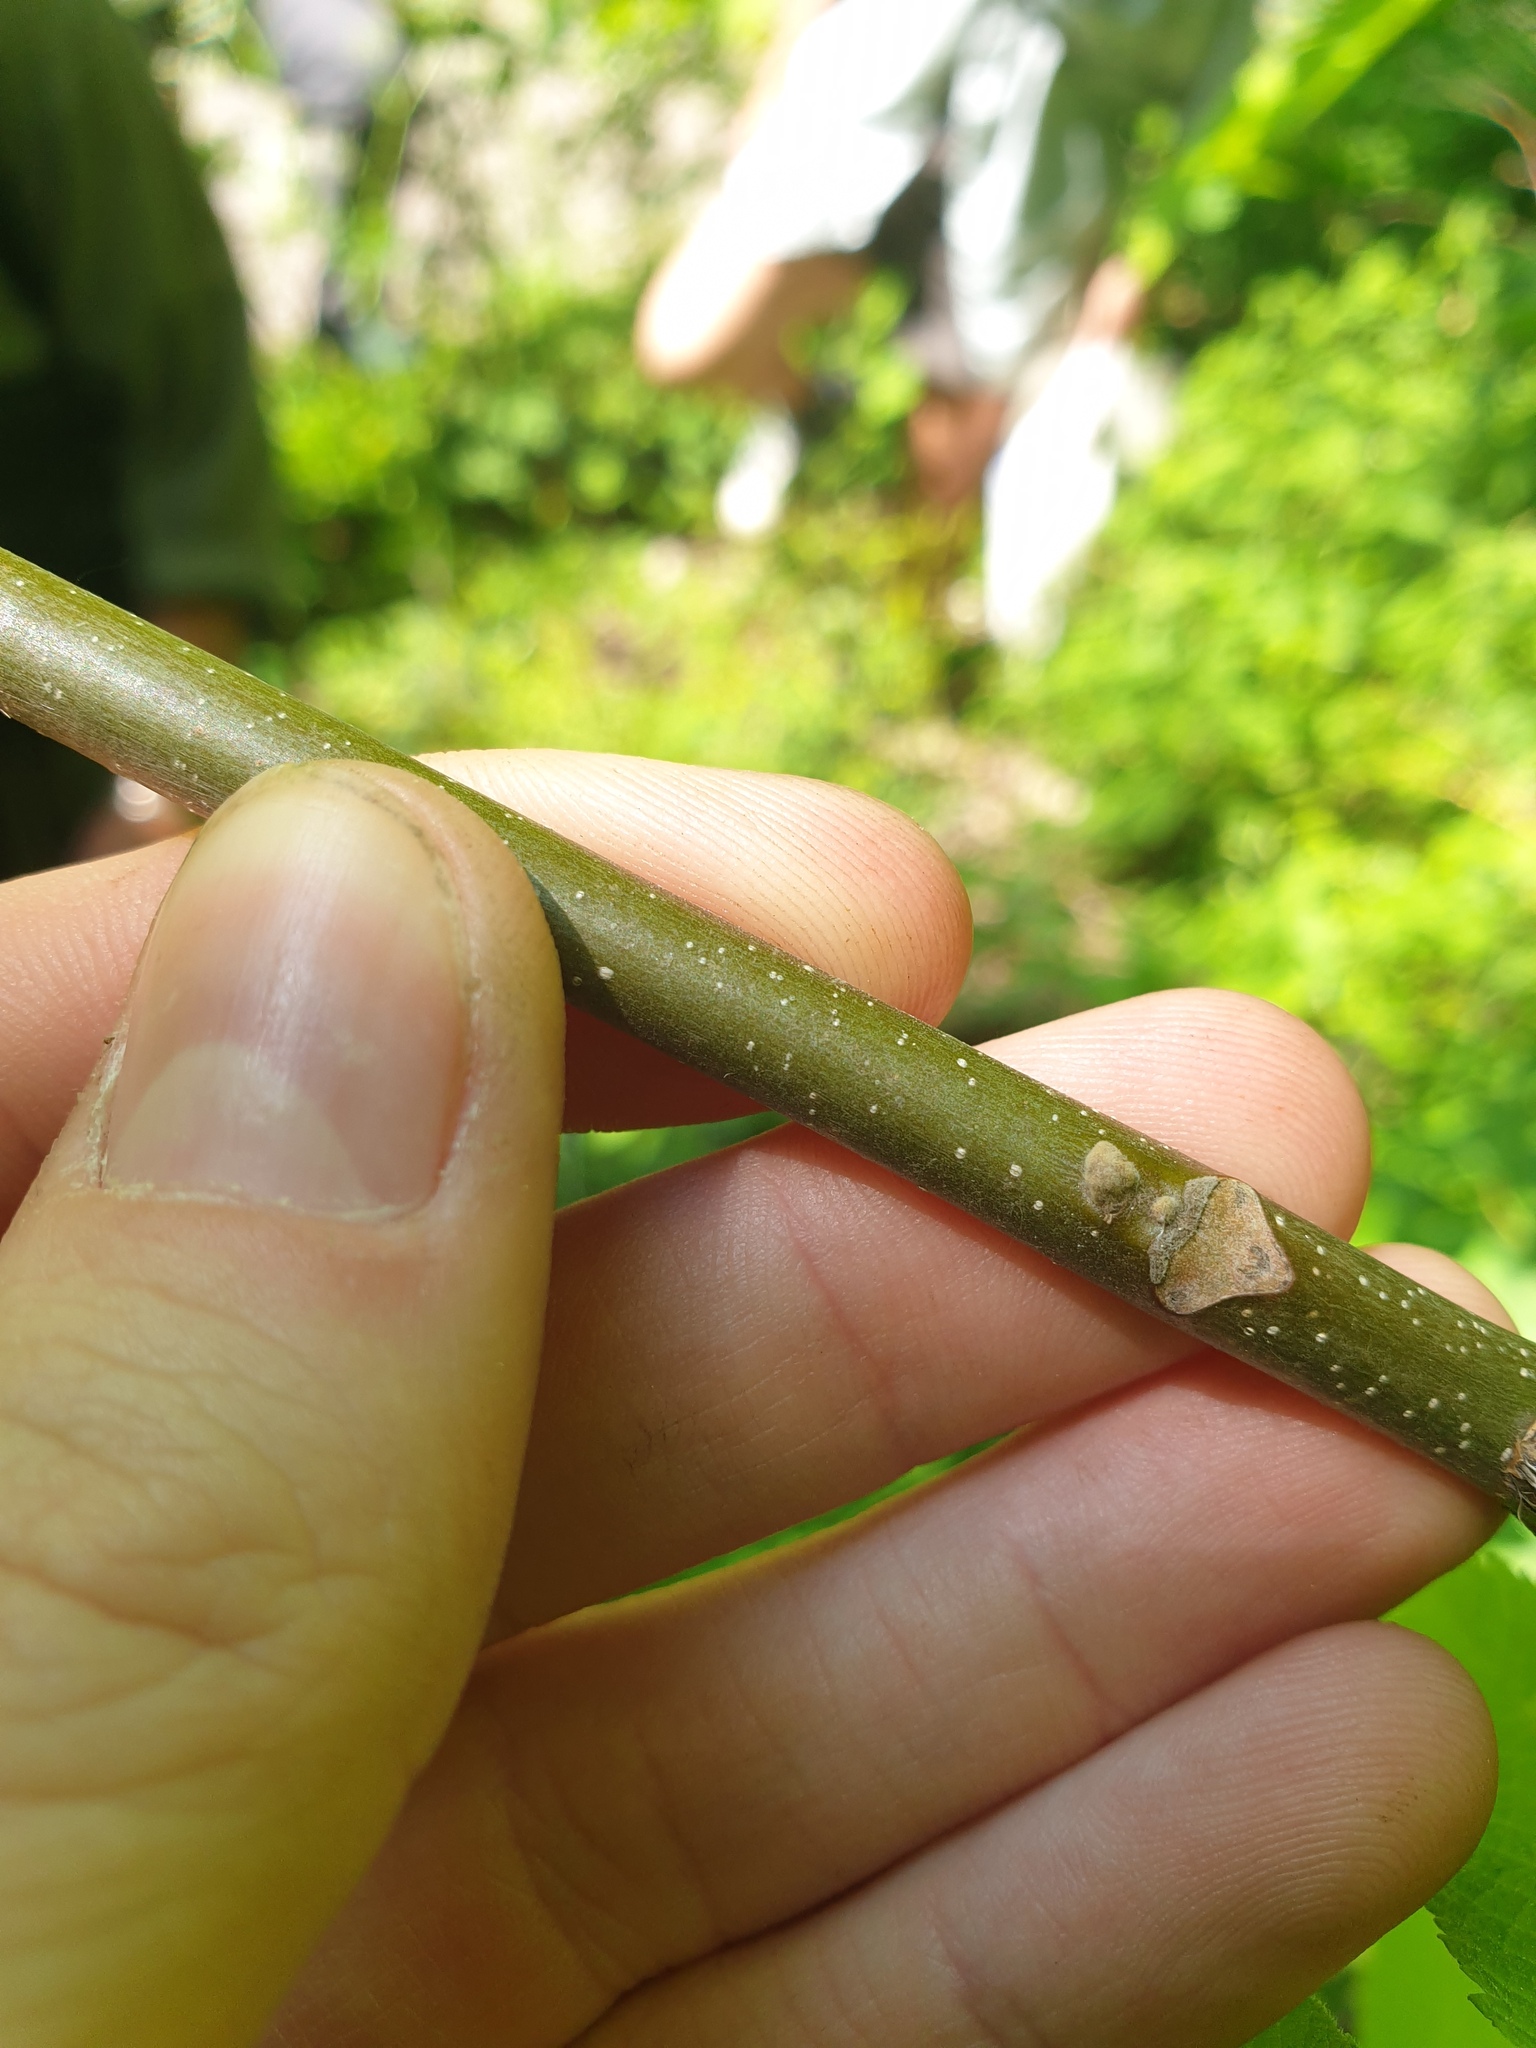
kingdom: Plantae
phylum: Tracheophyta
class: Magnoliopsida
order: Fagales
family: Juglandaceae
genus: Juglans
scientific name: Juglans cinerea
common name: Butternut
